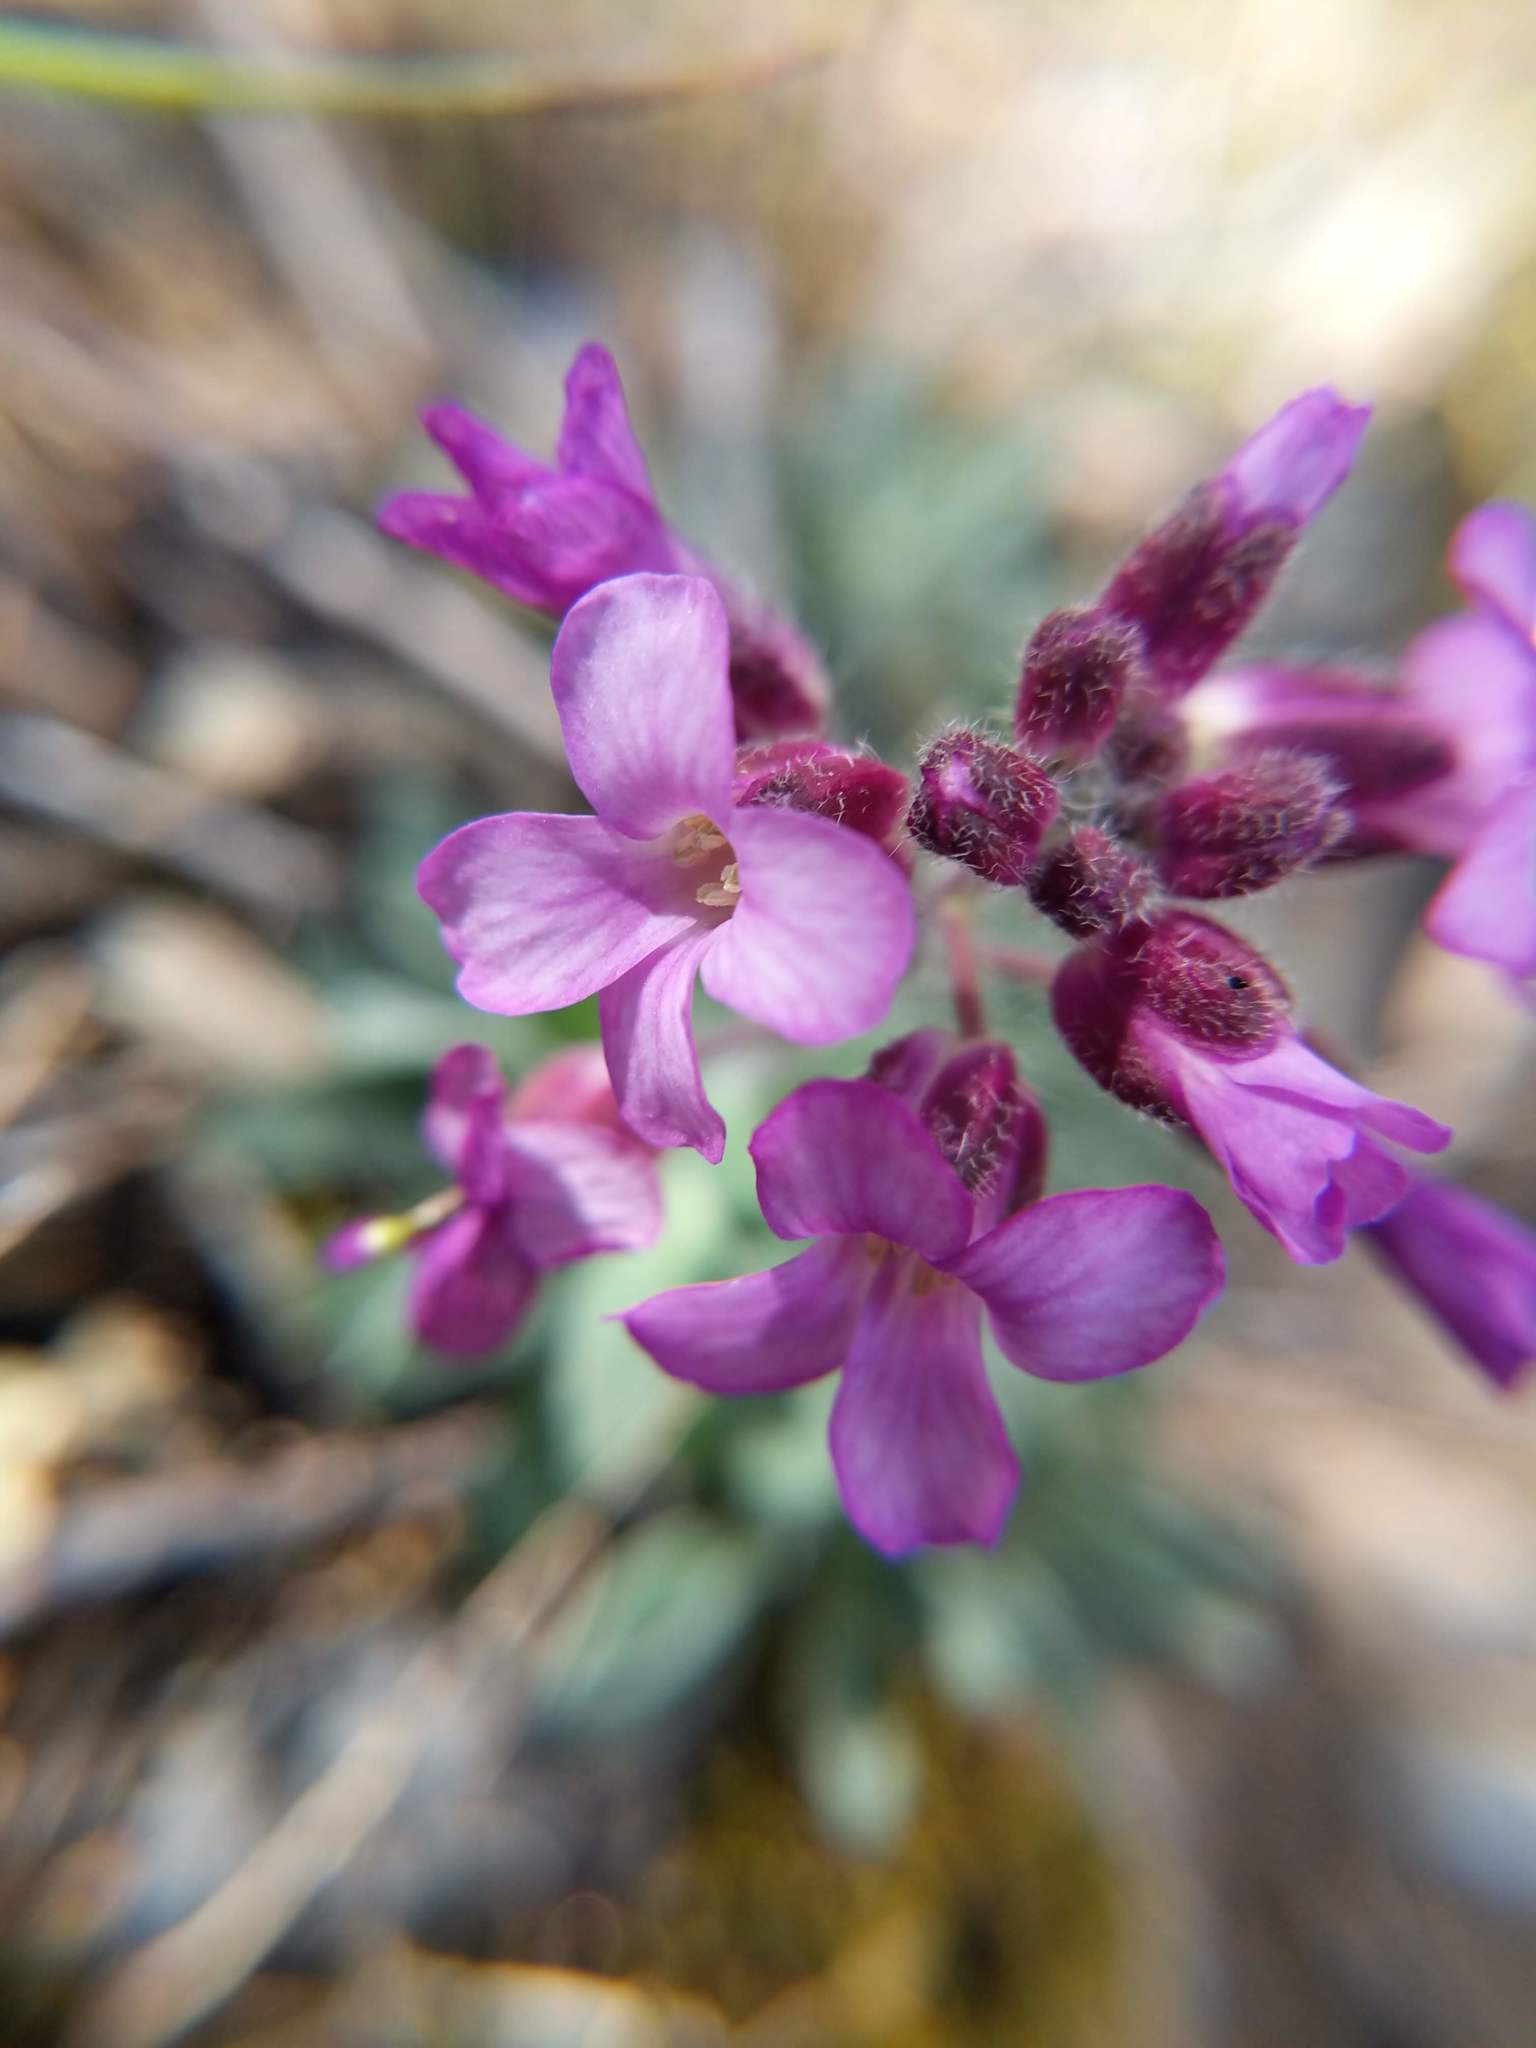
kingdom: Plantae
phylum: Tracheophyta
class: Magnoliopsida
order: Brassicales
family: Brassicaceae
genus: Boechera
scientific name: Boechera breweri
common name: Brewer's rockcress
